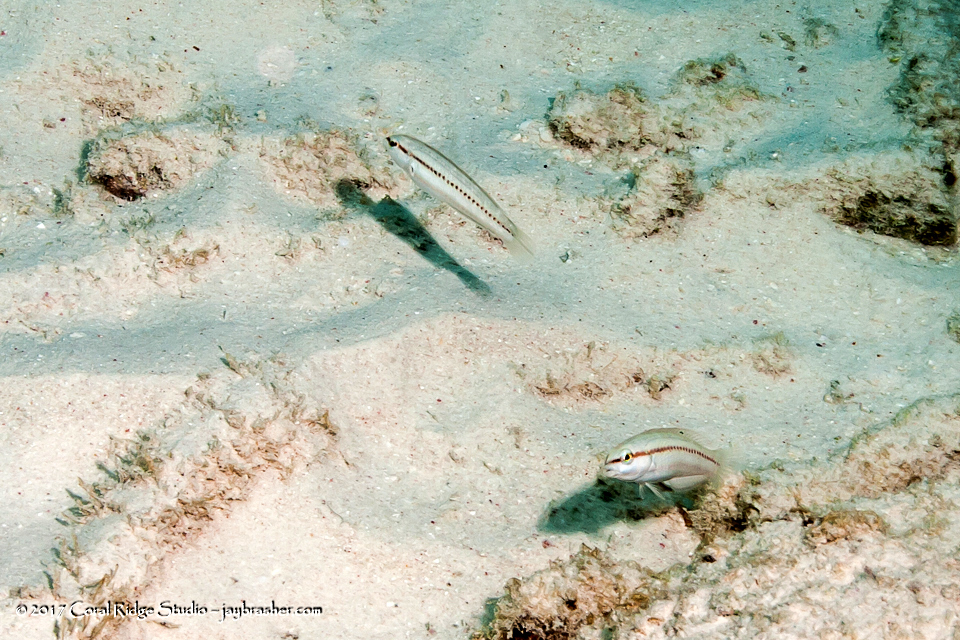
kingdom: Animalia
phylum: Chordata
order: Perciformes
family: Labridae
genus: Halichoeres
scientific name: Halichoeres bivittatus
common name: Slippery dick
